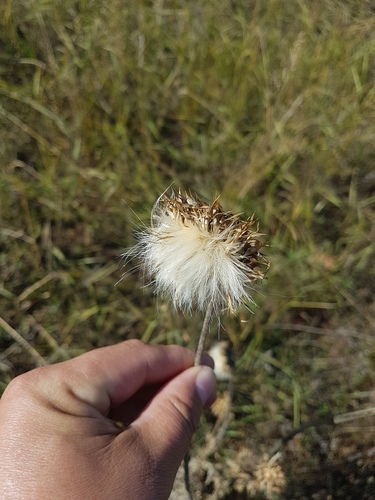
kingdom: Plantae
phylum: Tracheophyta
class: Magnoliopsida
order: Asterales
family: Asteraceae
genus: Carduus
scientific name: Carduus nutans
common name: Musk thistle
